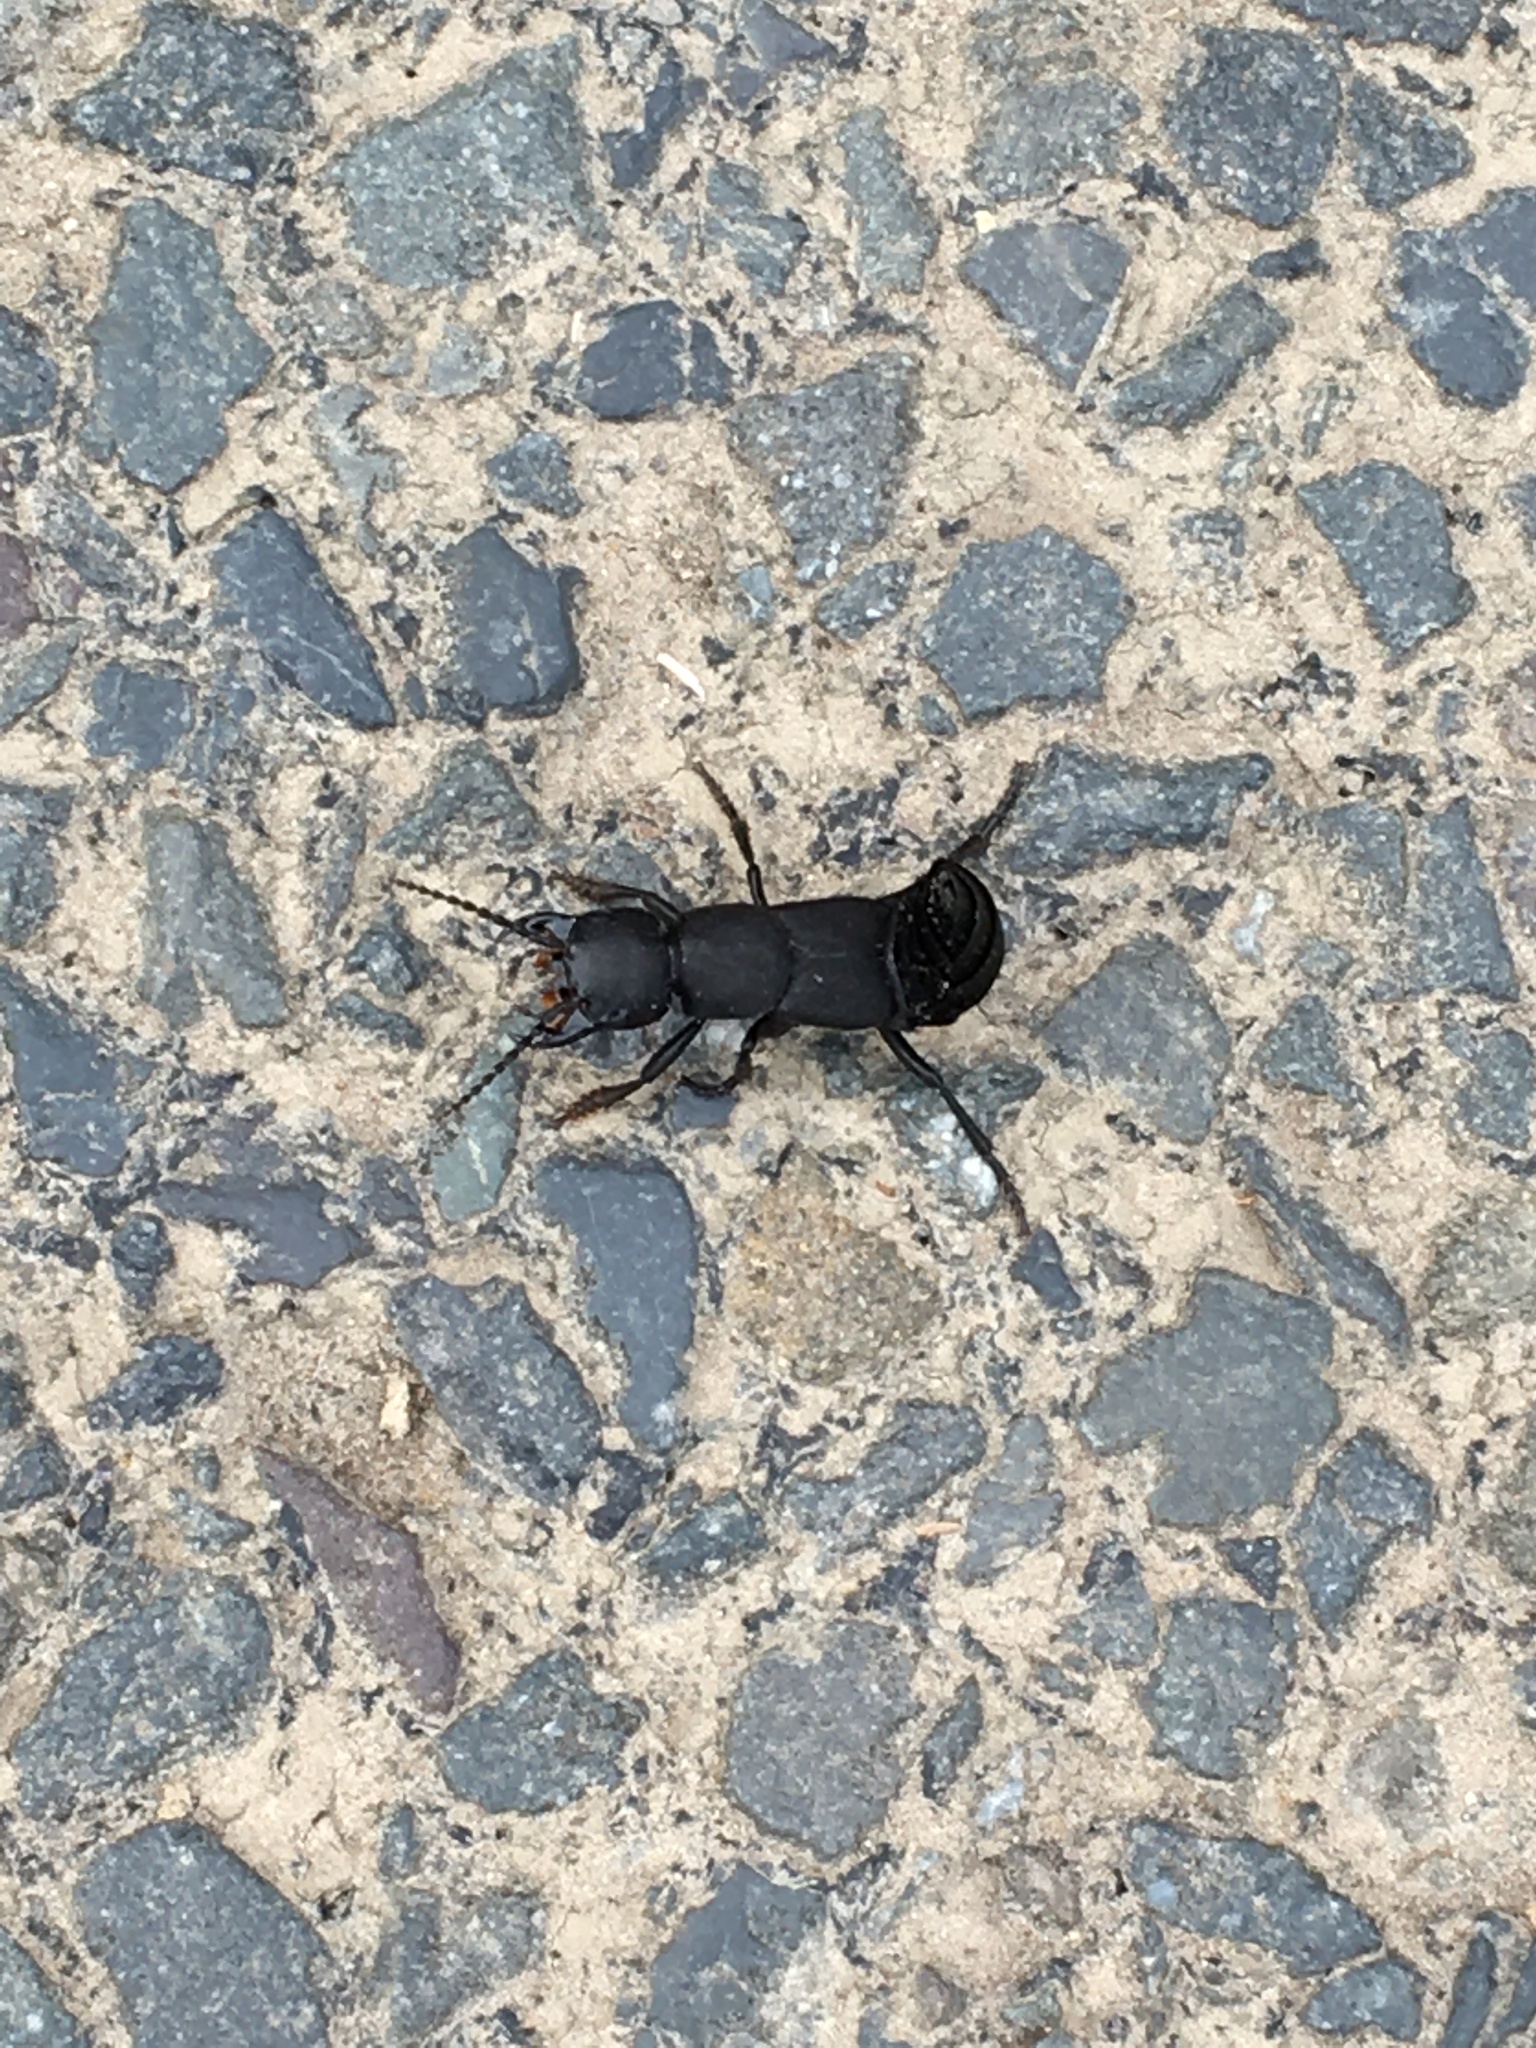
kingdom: Animalia
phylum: Arthropoda
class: Insecta
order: Coleoptera
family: Staphylinidae
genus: Ocypus
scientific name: Ocypus olens
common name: Devil's coach-horse
